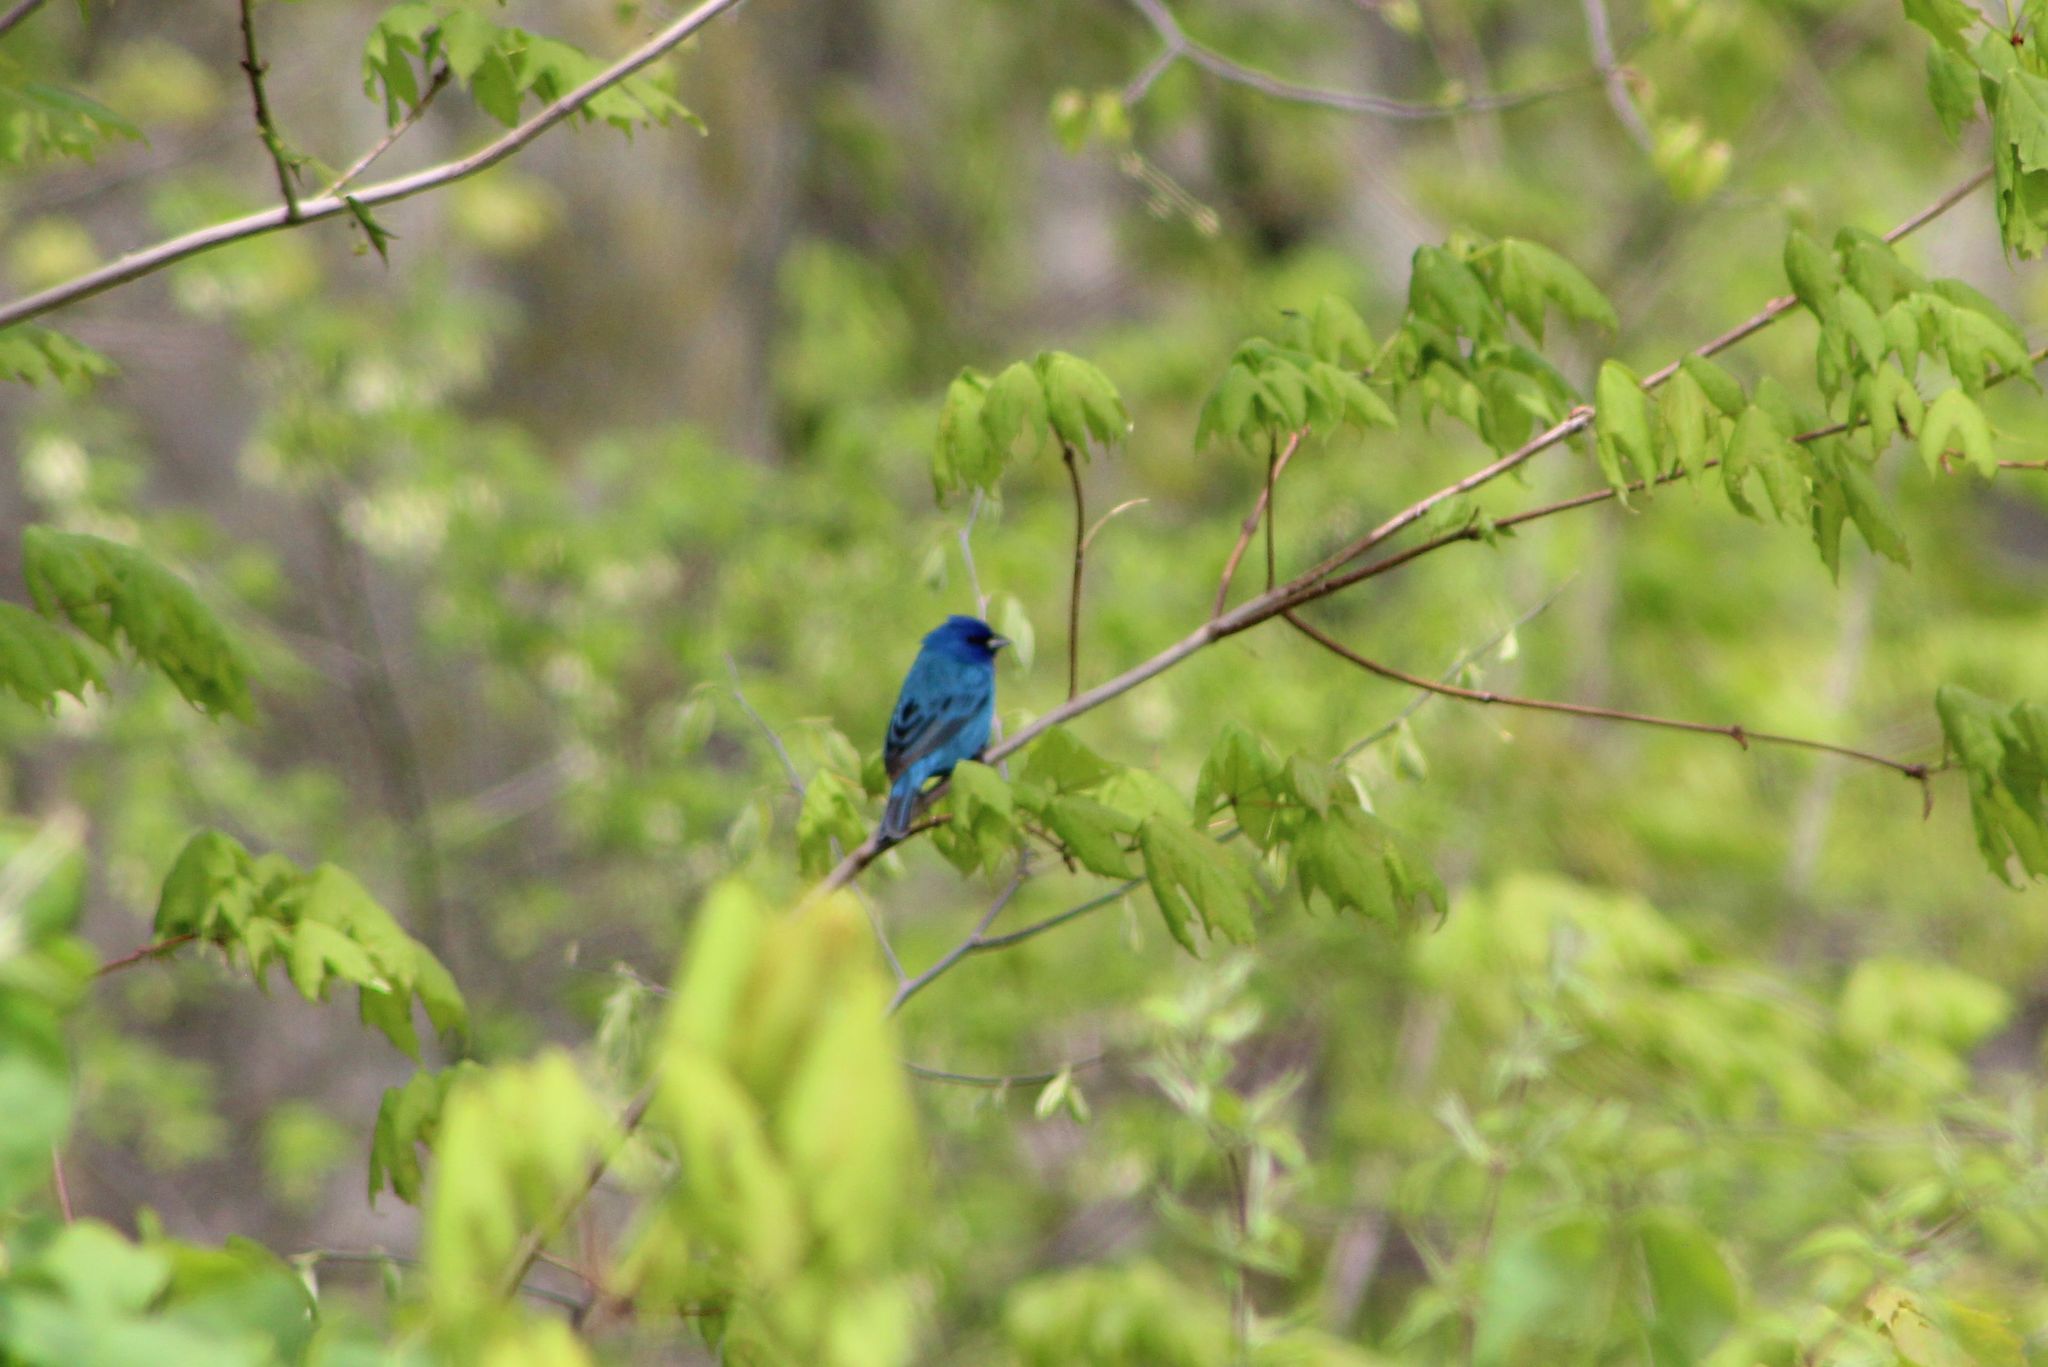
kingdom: Animalia
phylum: Chordata
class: Aves
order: Passeriformes
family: Cardinalidae
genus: Passerina
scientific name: Passerina cyanea
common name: Indigo bunting
